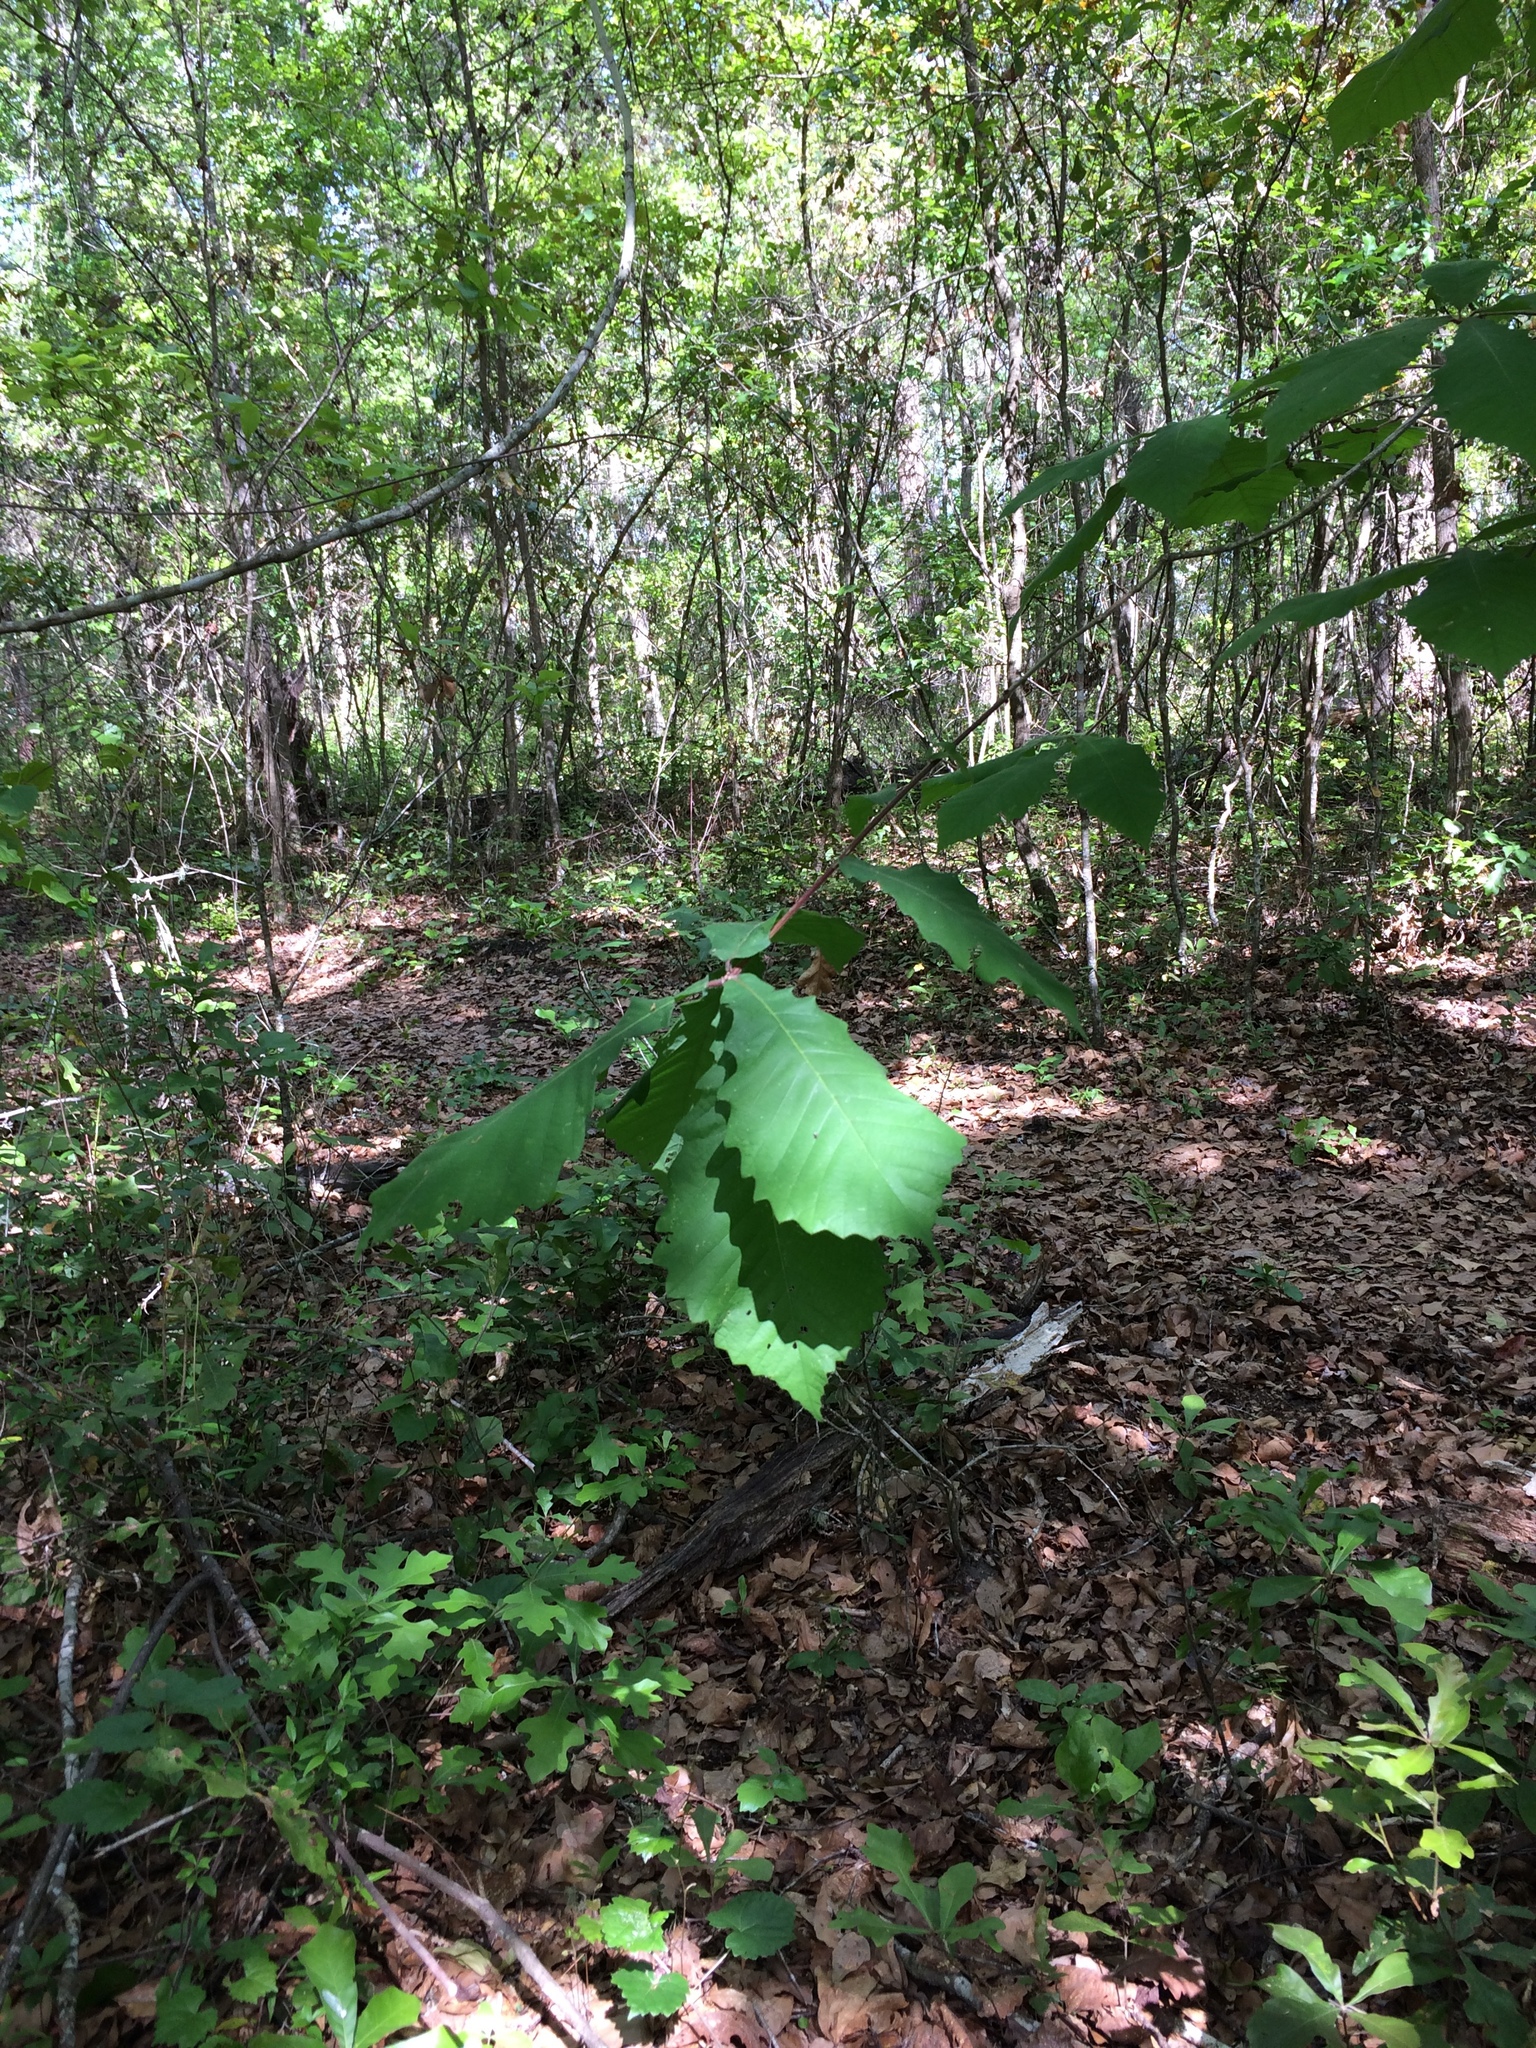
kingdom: Plantae
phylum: Tracheophyta
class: Magnoliopsida
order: Fagales
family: Fagaceae
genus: Quercus
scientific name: Quercus michauxii
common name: Swamp chestnut oak
